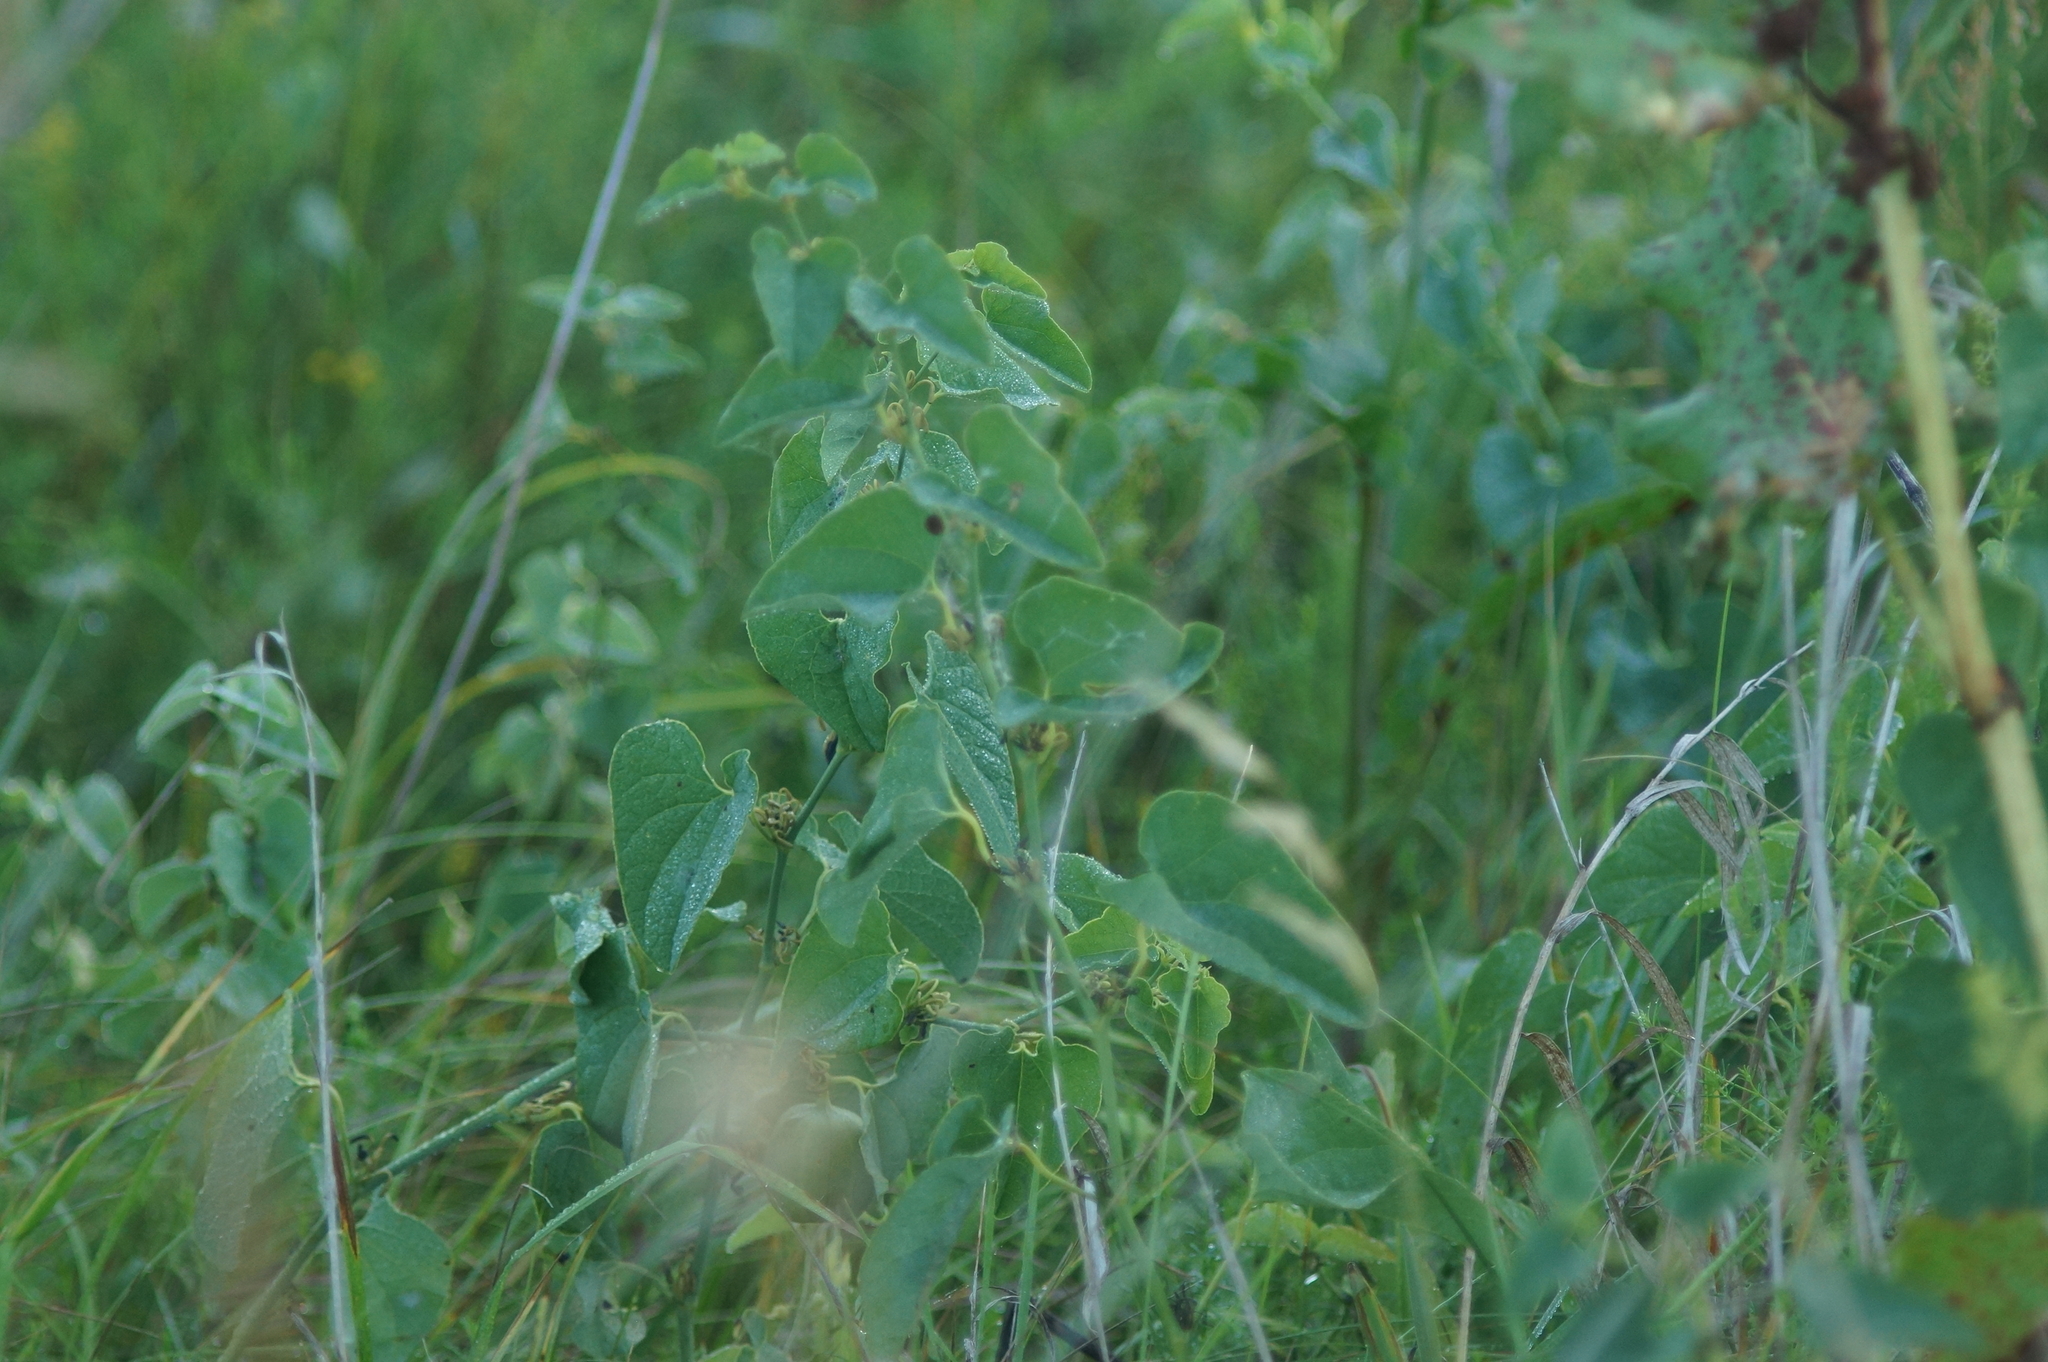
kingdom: Plantae
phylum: Tracheophyta
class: Magnoliopsida
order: Piperales
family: Aristolochiaceae
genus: Aristolochia
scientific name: Aristolochia clematitis
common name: Birthwort
